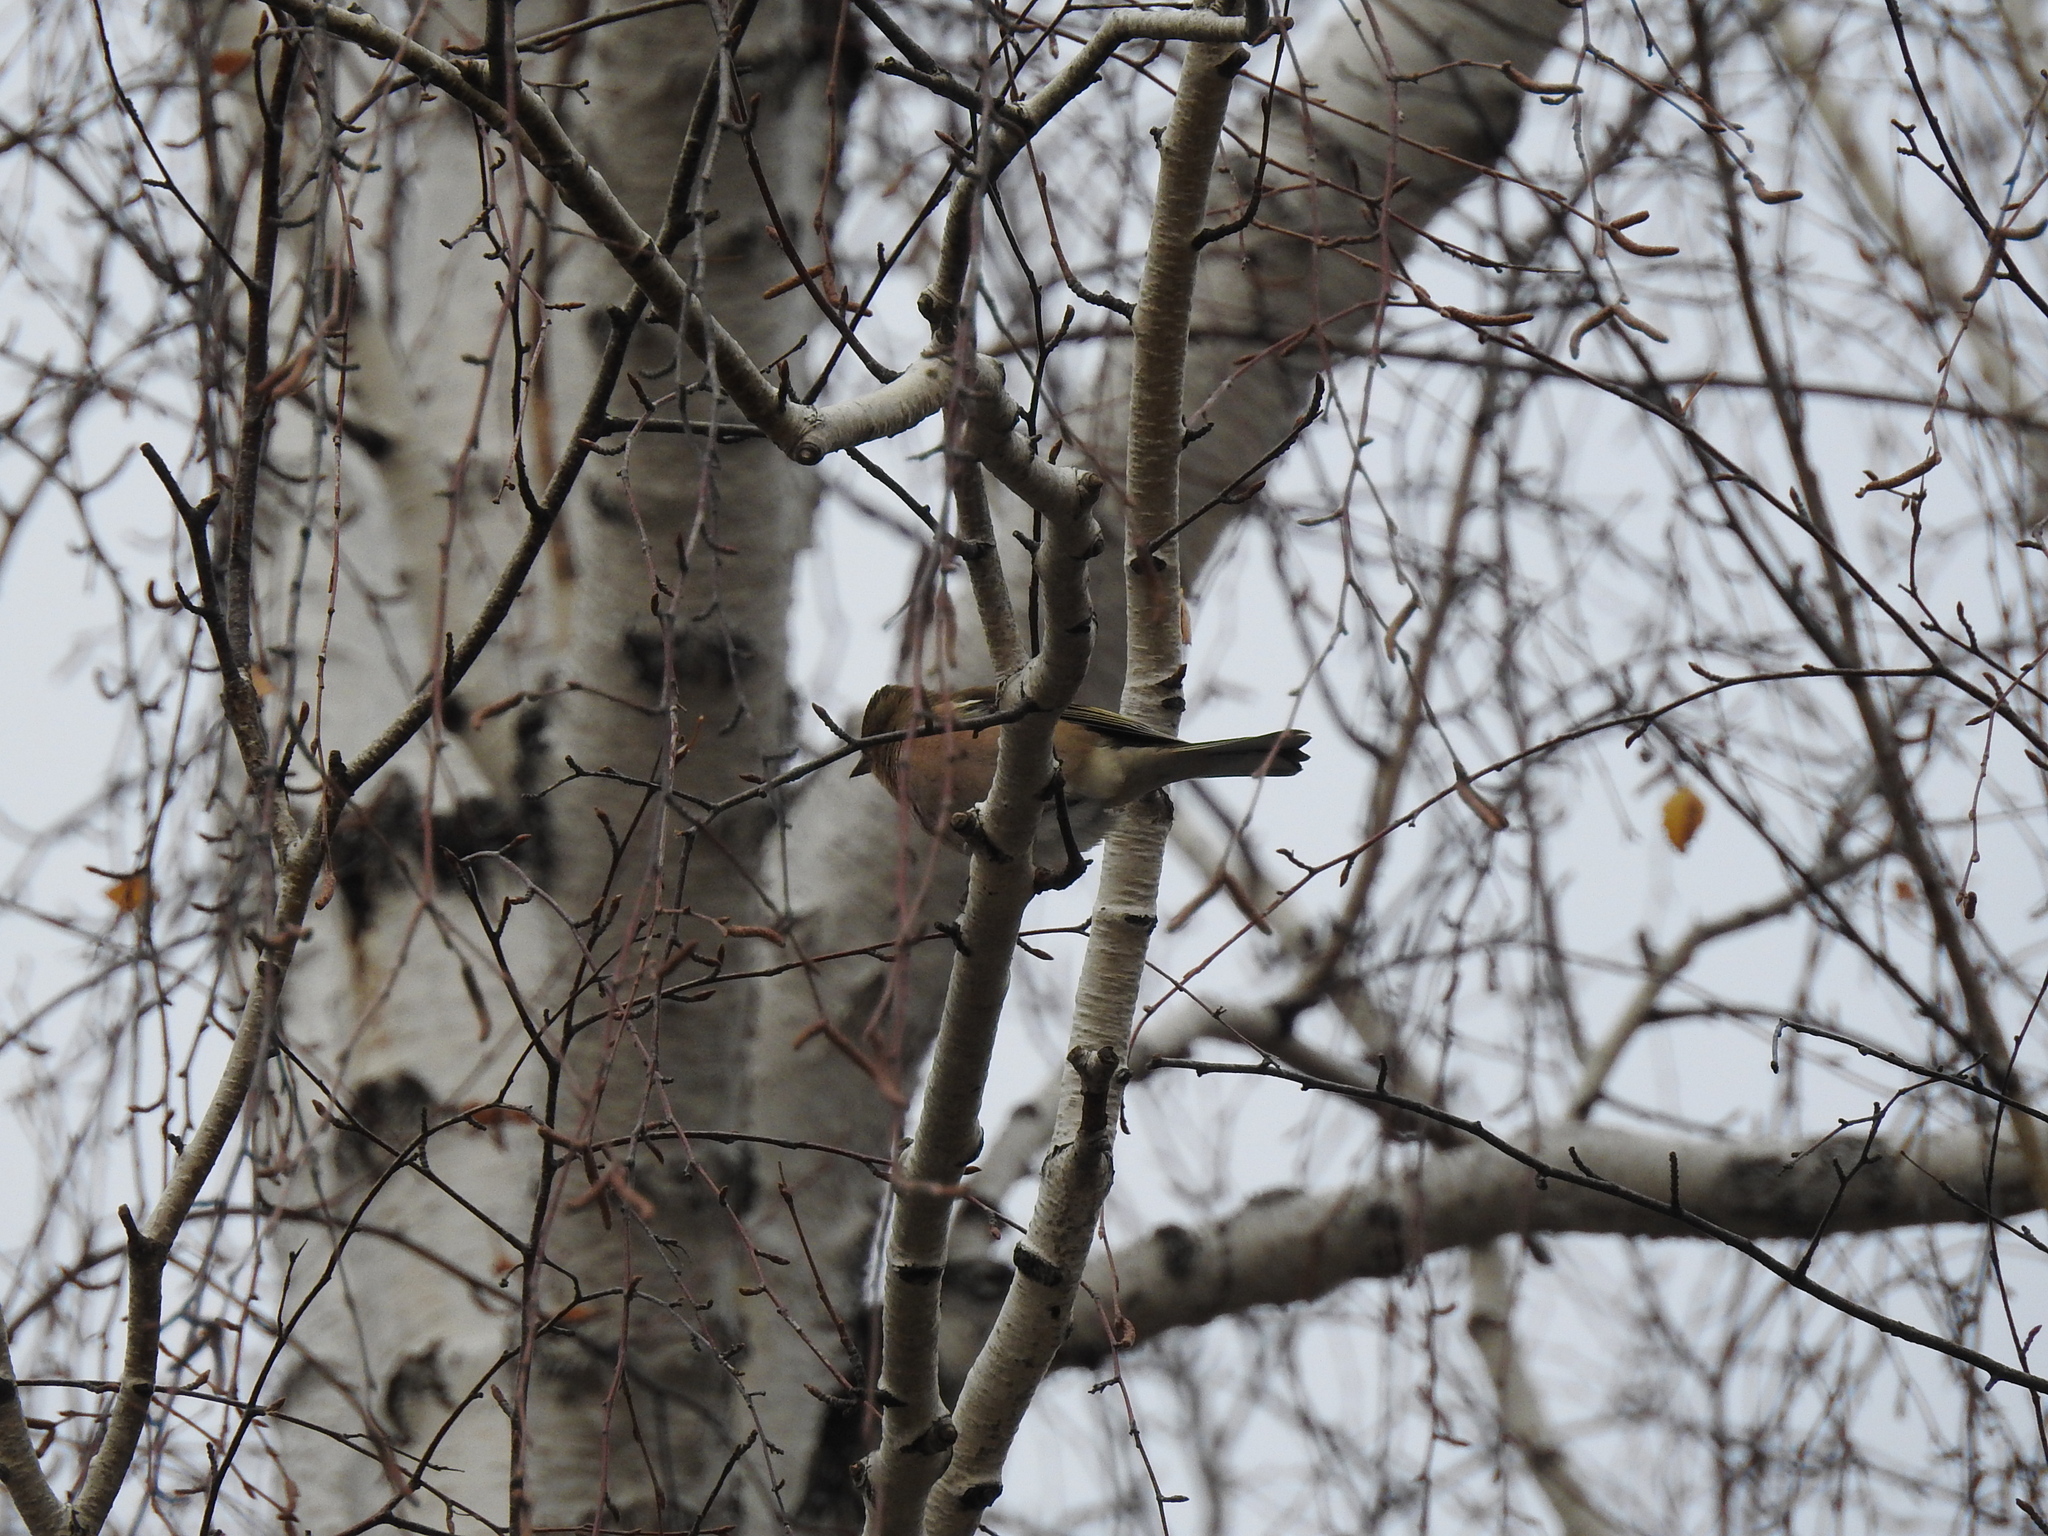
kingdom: Animalia
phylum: Chordata
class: Aves
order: Passeriformes
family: Fringillidae
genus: Fringilla
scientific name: Fringilla montifringilla
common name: Brambling
